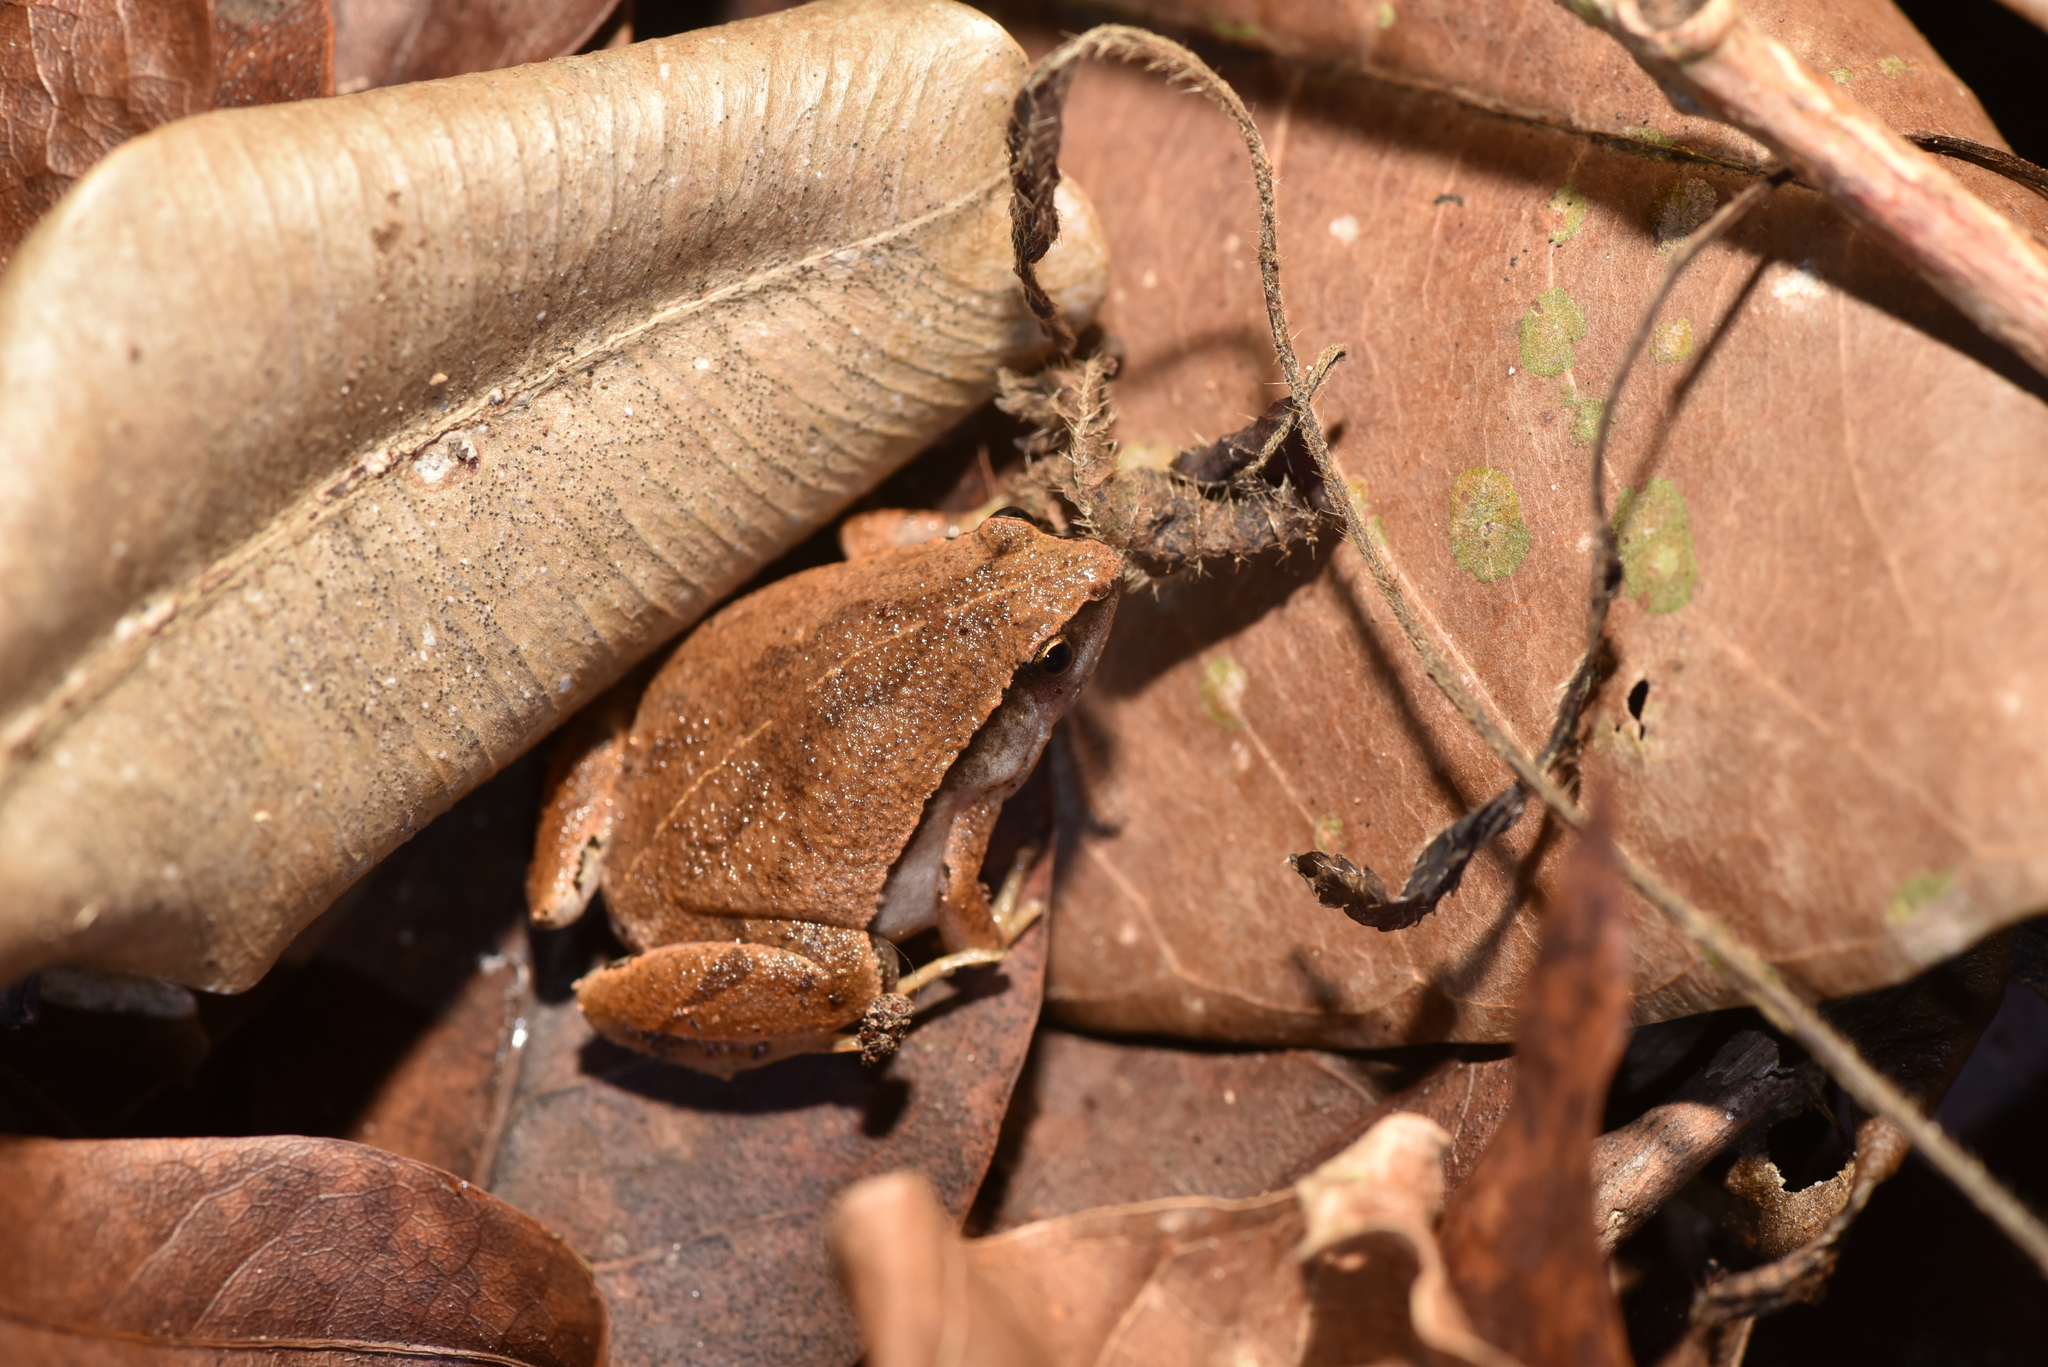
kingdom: Animalia
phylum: Chordata
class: Amphibia
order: Anura
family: Microhylidae
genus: Microhyla
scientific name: Microhyla heymonsi
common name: Taiwan rice frog,dark sided chorus frog
